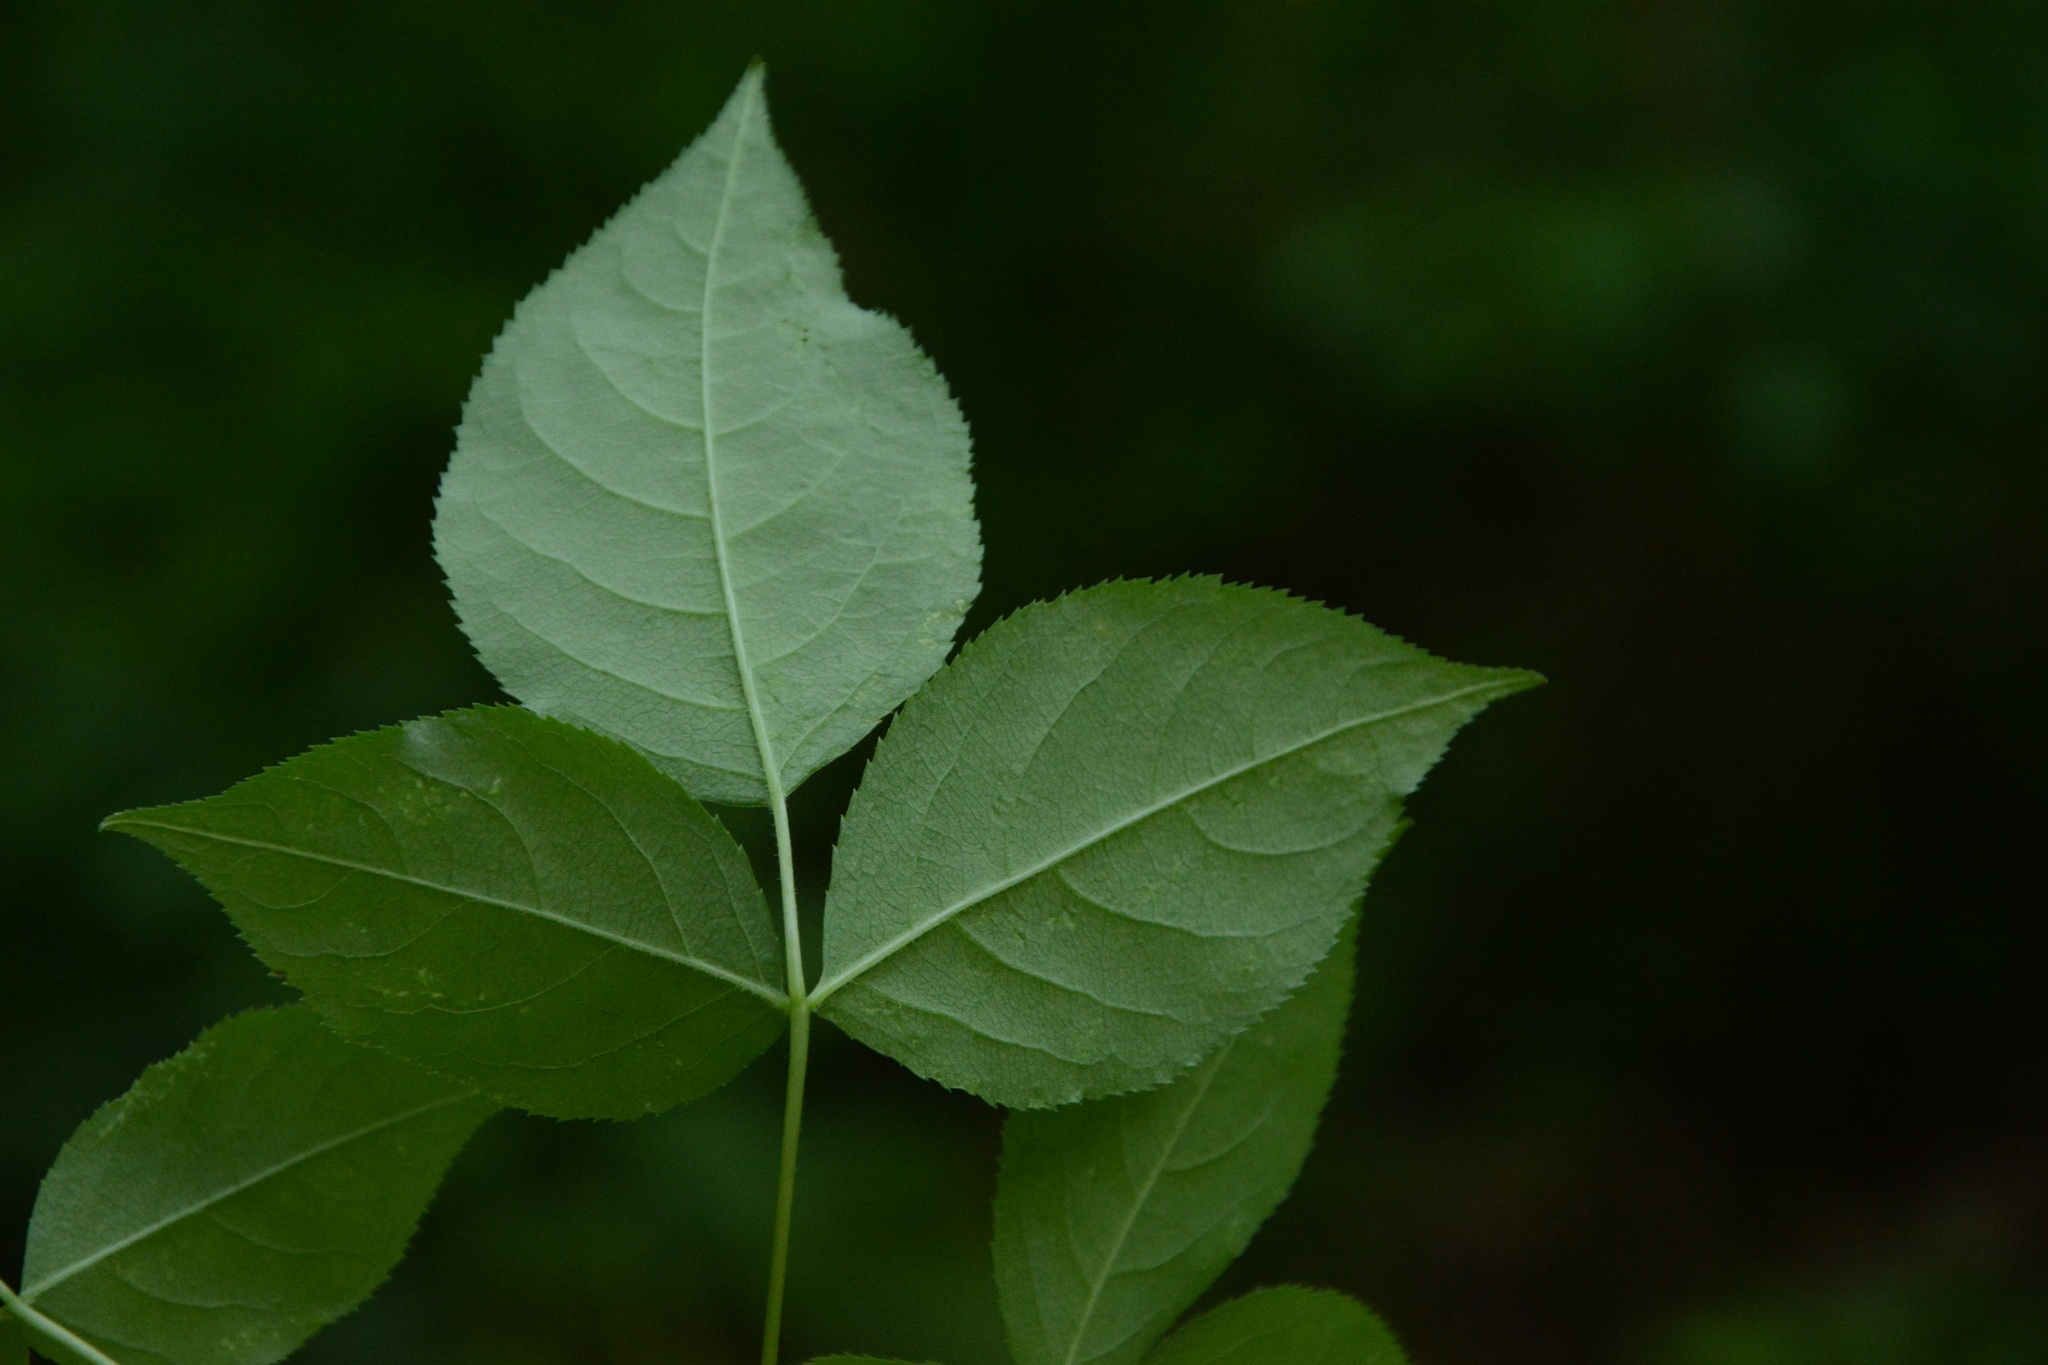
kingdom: Plantae
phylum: Tracheophyta
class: Magnoliopsida
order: Crossosomatales
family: Staphyleaceae
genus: Staphylea
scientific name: Staphylea trifolia
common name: American bladdernut
